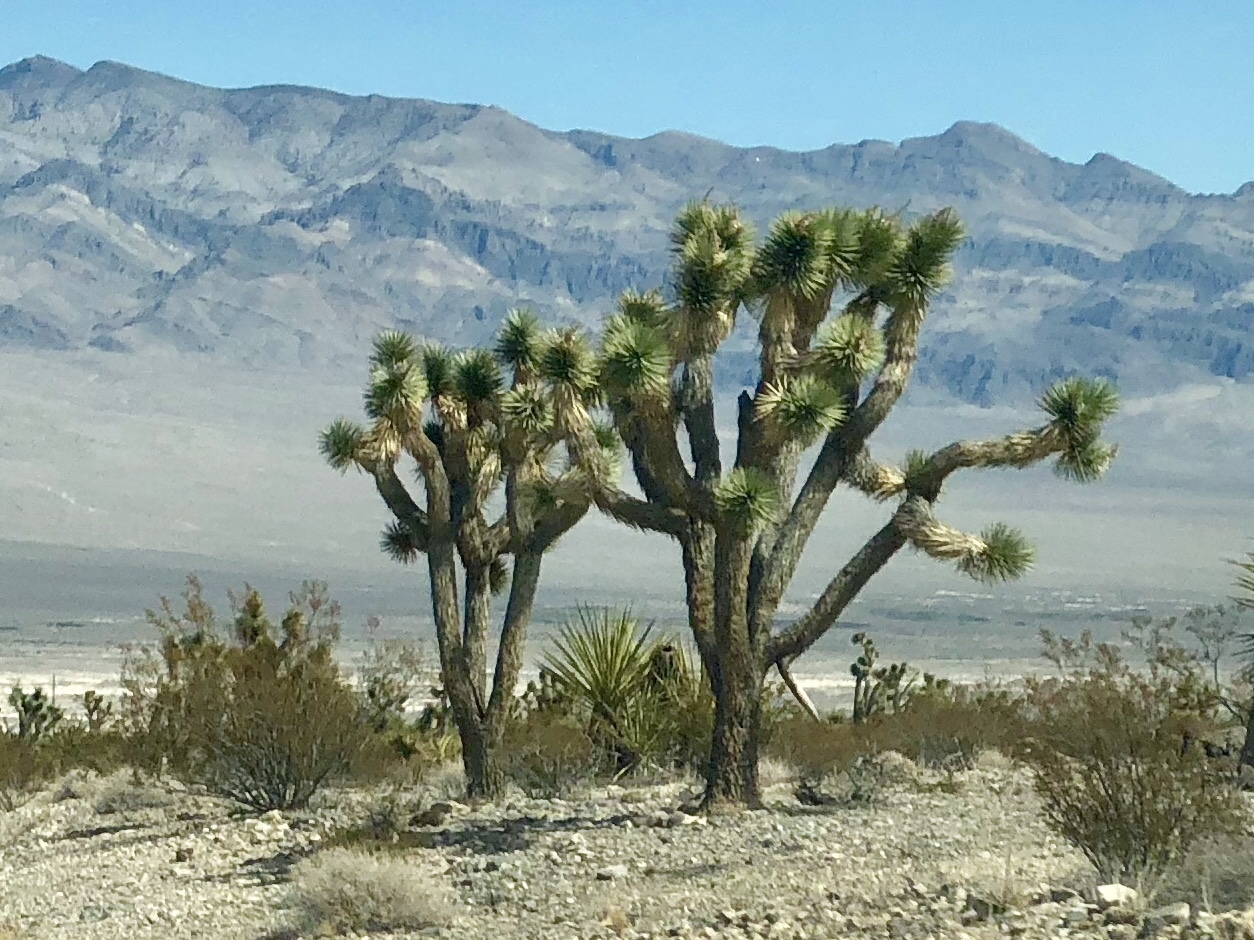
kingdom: Plantae
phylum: Tracheophyta
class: Liliopsida
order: Asparagales
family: Asparagaceae
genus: Yucca
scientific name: Yucca brevifolia
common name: Joshua tree
